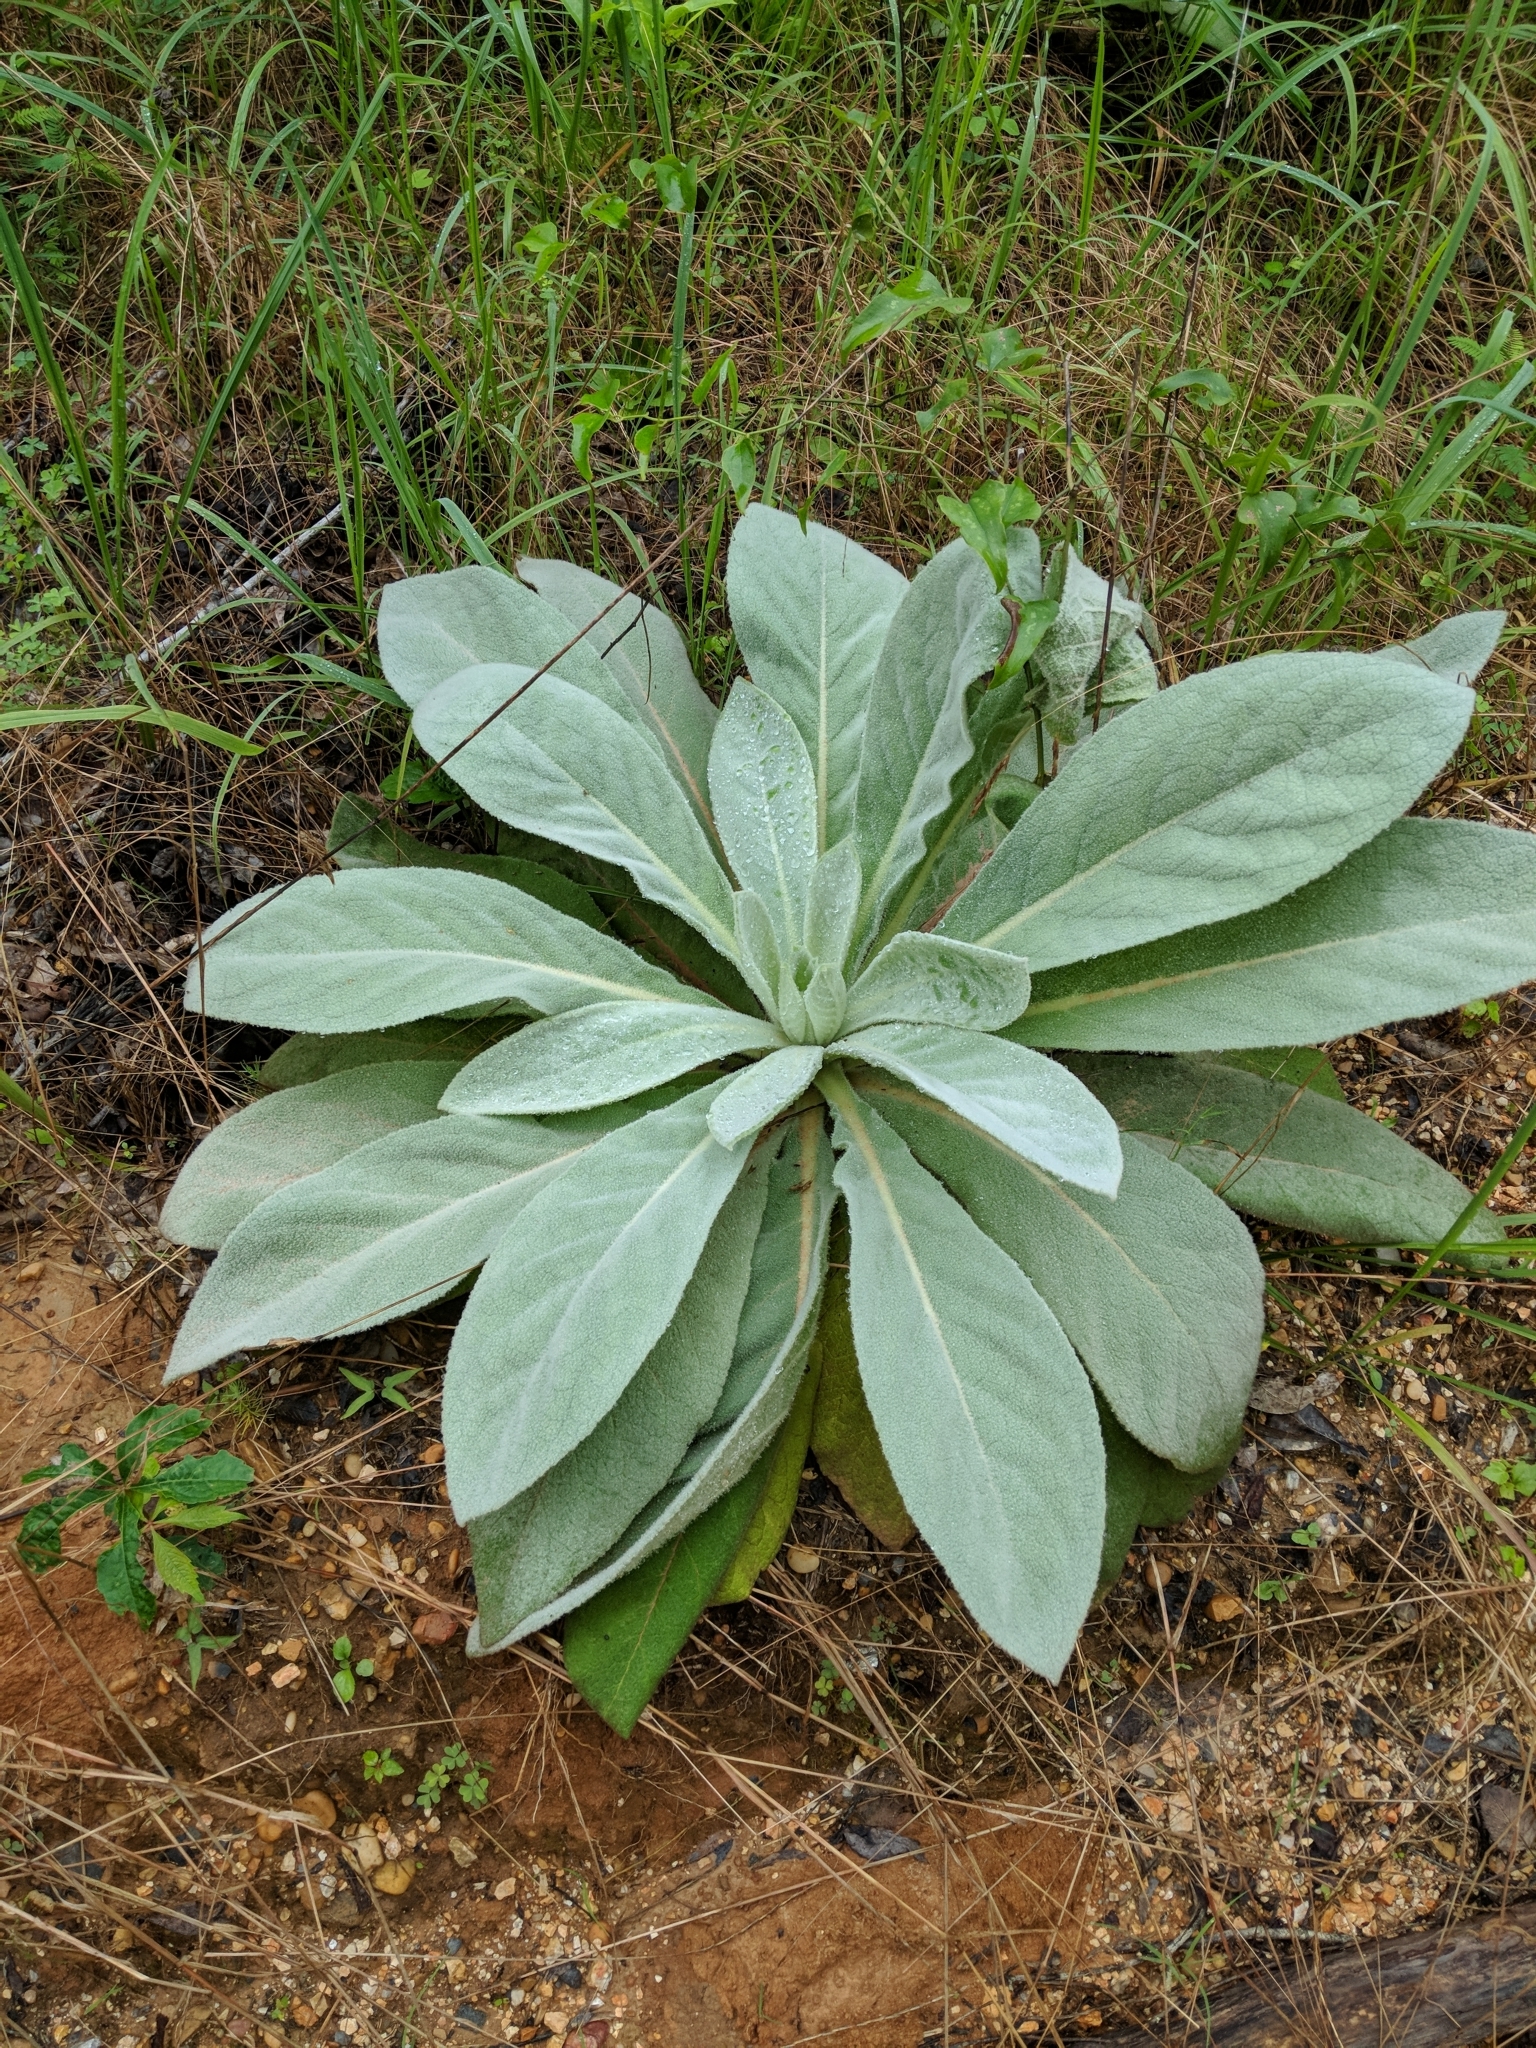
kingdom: Plantae
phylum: Tracheophyta
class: Magnoliopsida
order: Lamiales
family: Scrophulariaceae
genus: Verbascum
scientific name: Verbascum thapsus
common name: Common mullein
